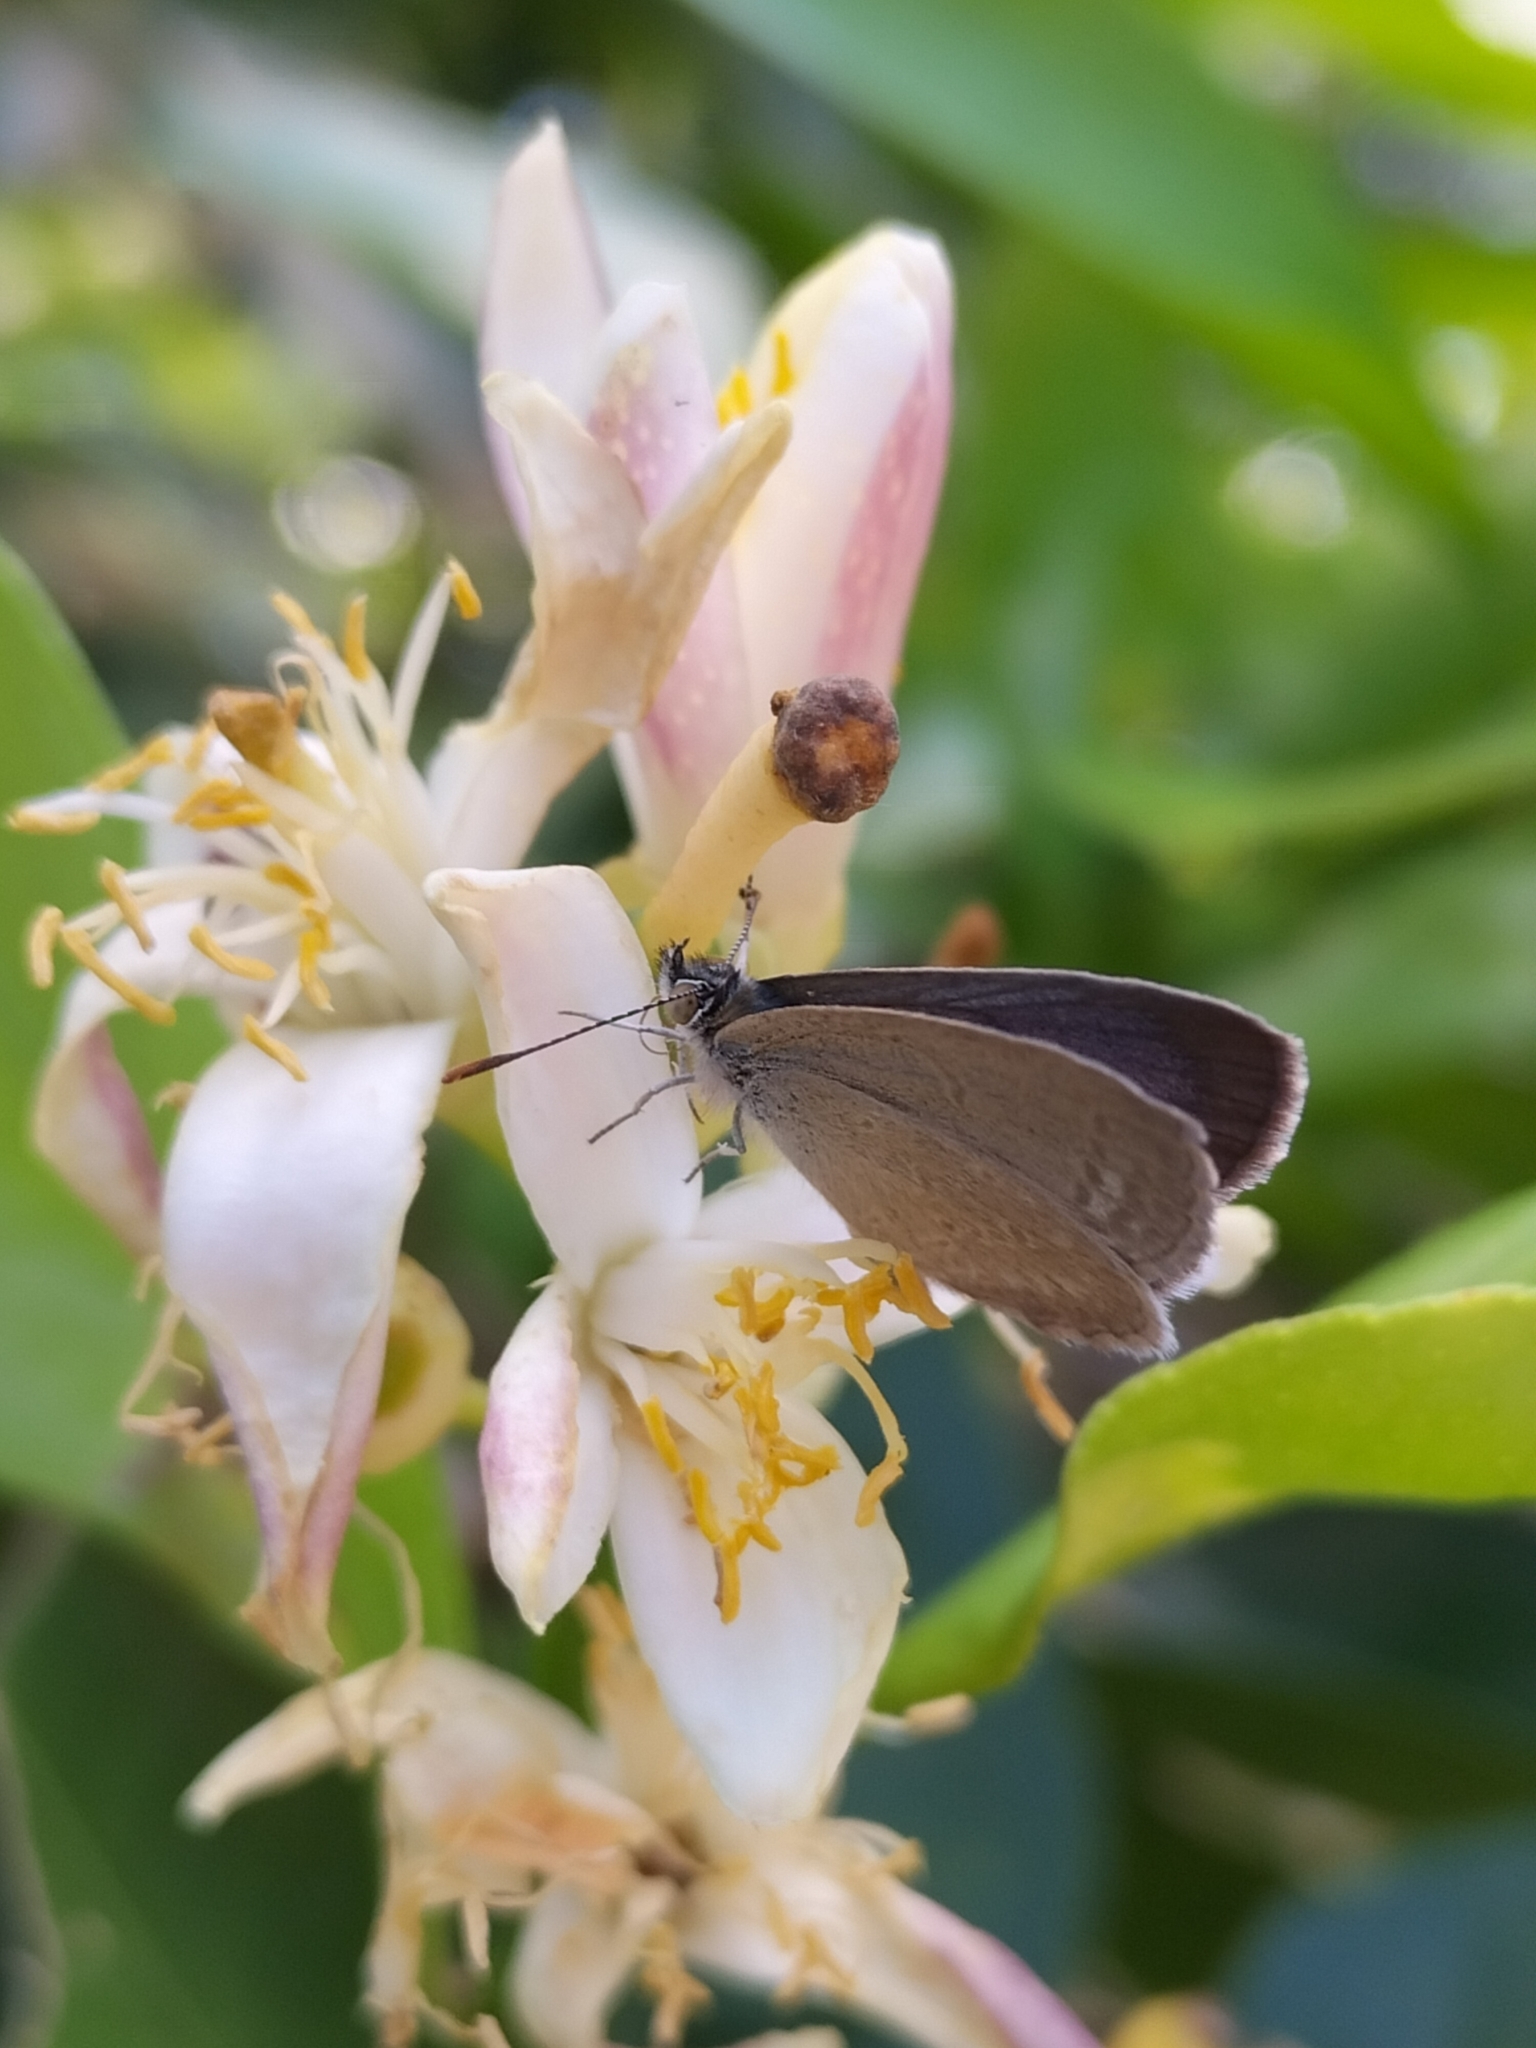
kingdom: Animalia
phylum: Arthropoda
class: Insecta
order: Lepidoptera
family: Lycaenidae
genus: Zizina
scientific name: Zizina labradus
